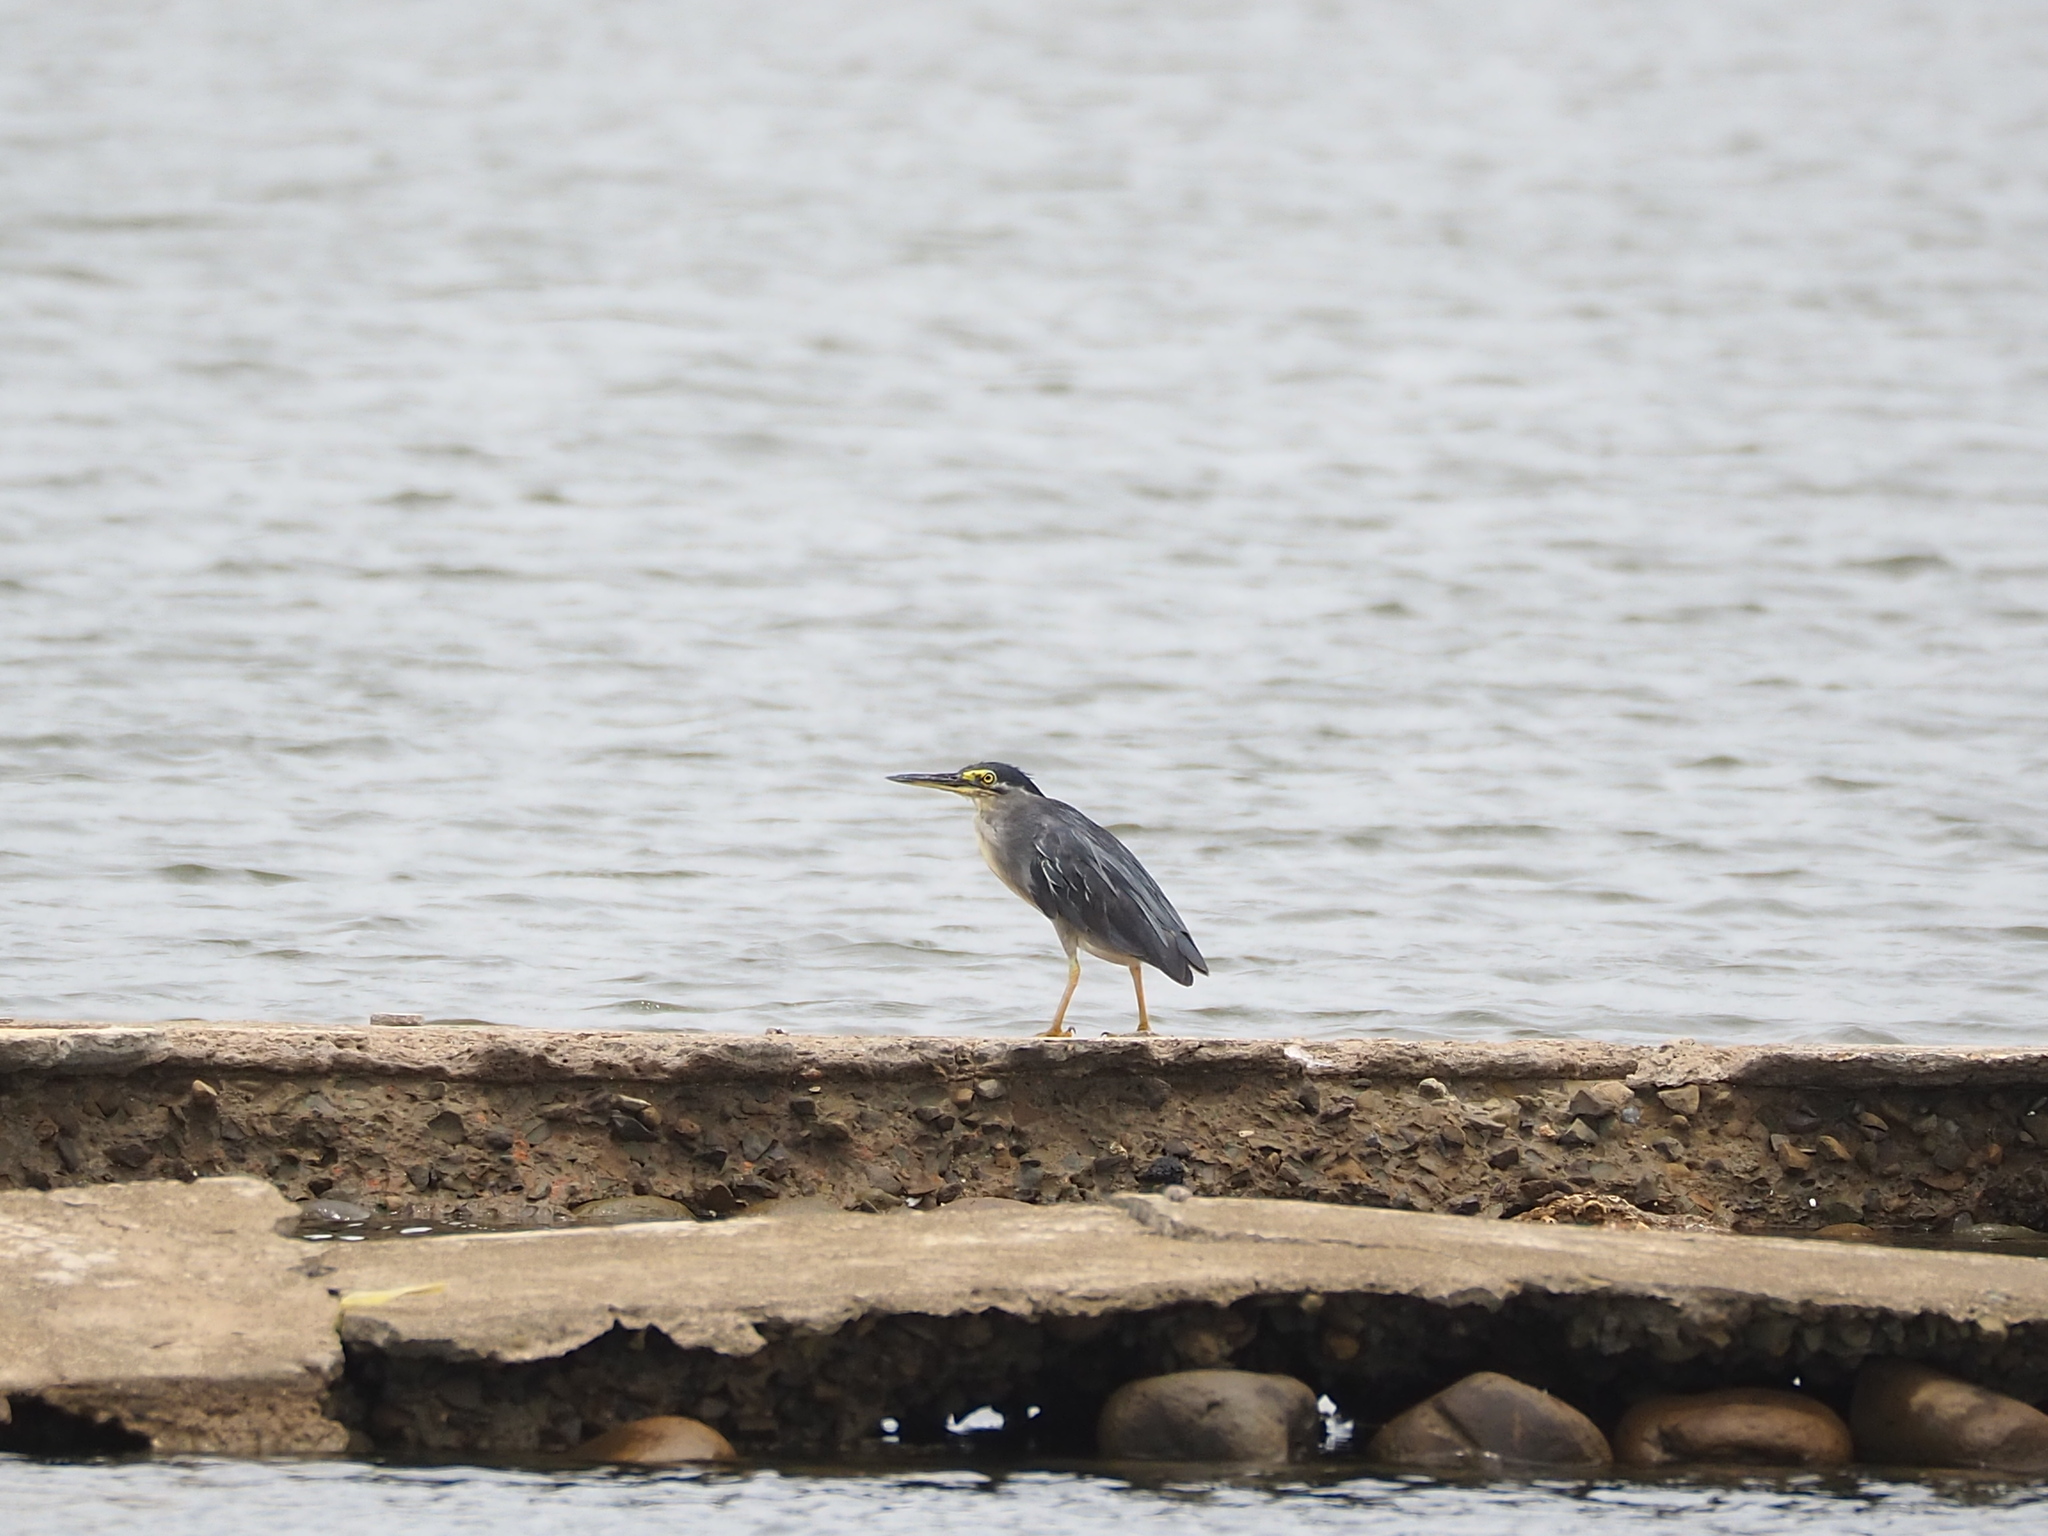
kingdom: Animalia
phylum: Chordata
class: Aves
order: Pelecaniformes
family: Ardeidae
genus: Butorides
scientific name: Butorides striata
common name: Striated heron
